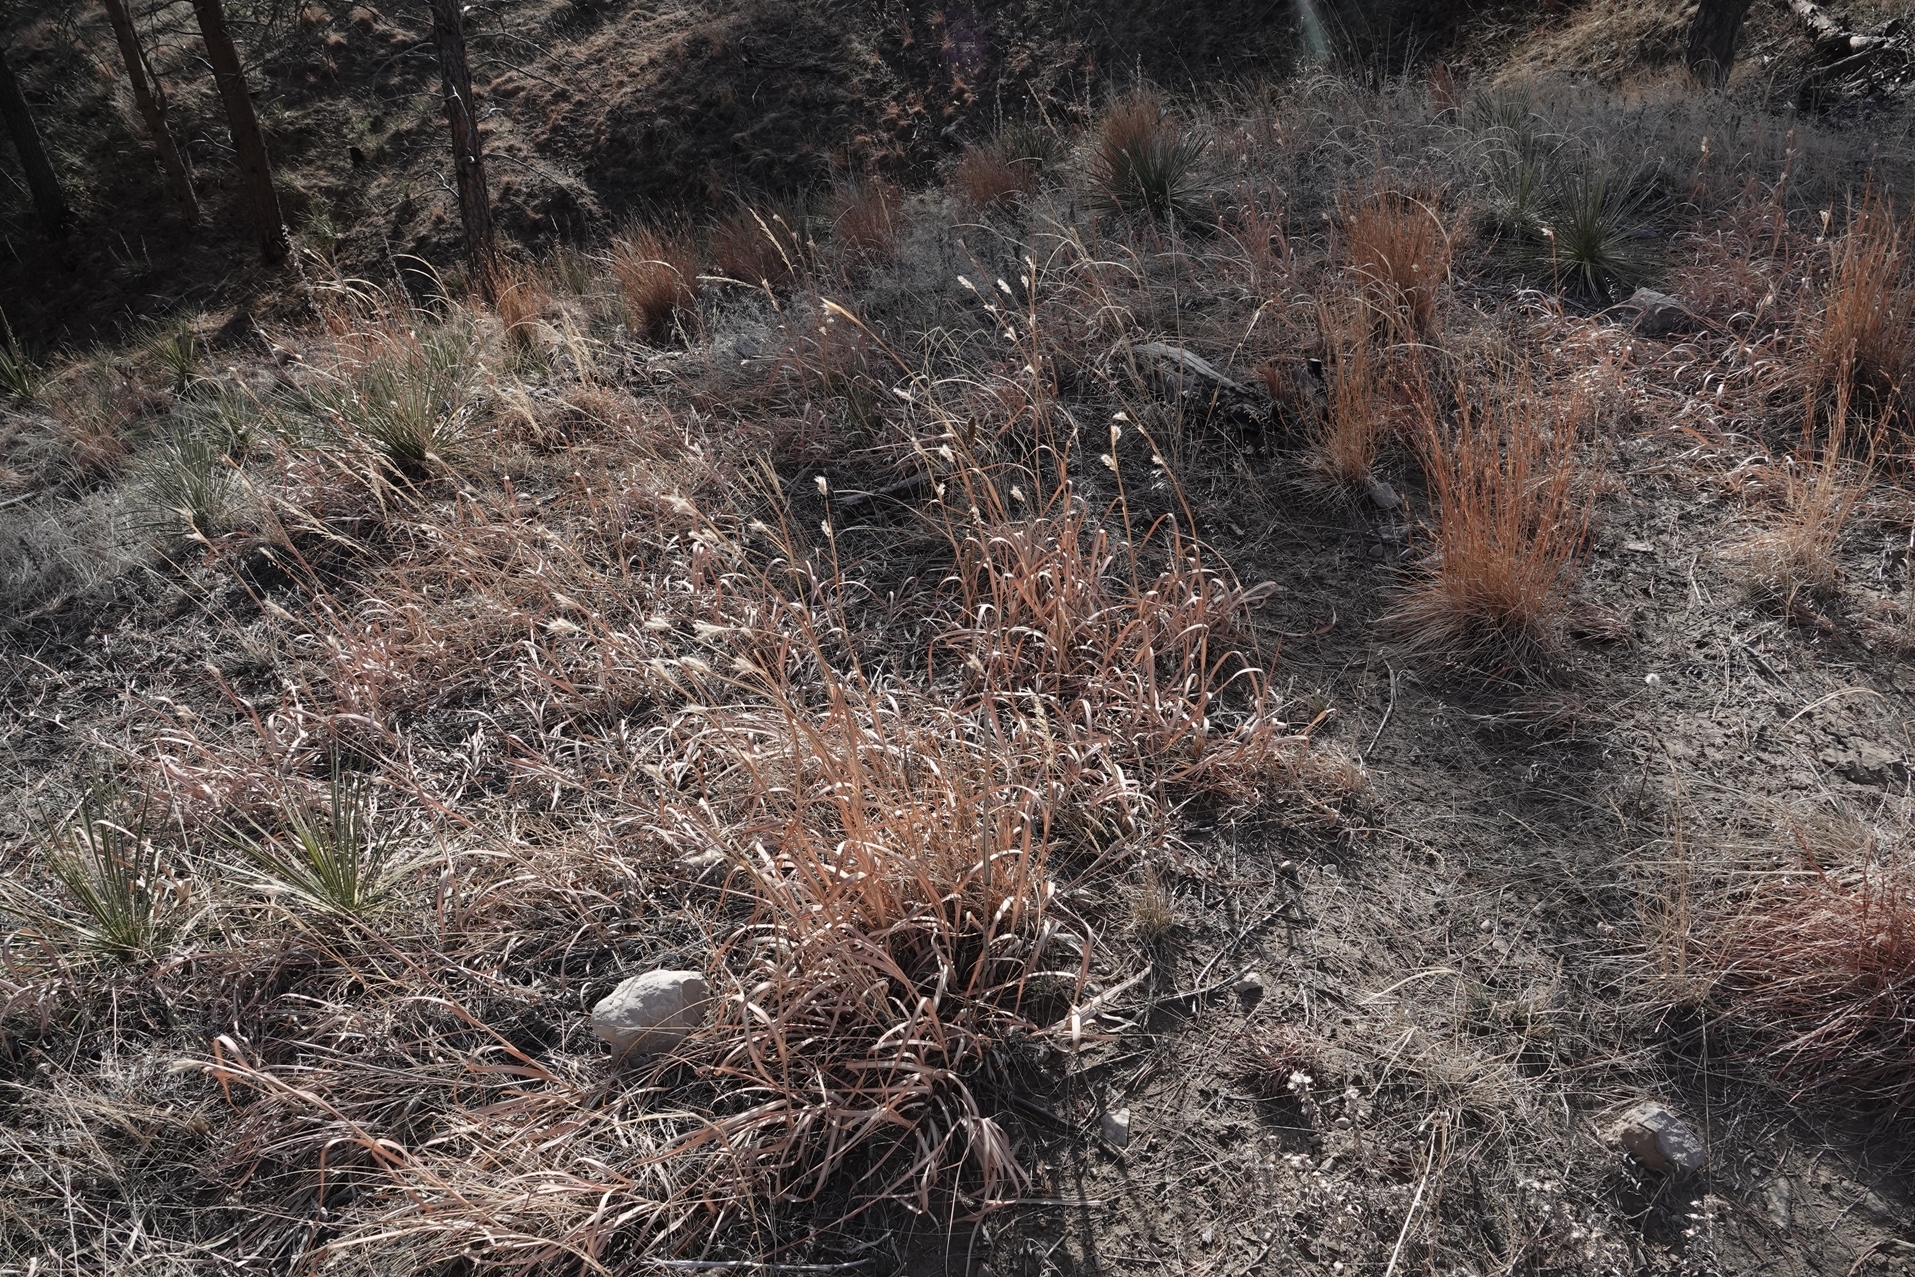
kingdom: Plantae
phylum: Tracheophyta
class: Liliopsida
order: Poales
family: Poaceae
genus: Andropogon
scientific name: Andropogon hallii
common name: Sand bluestem
